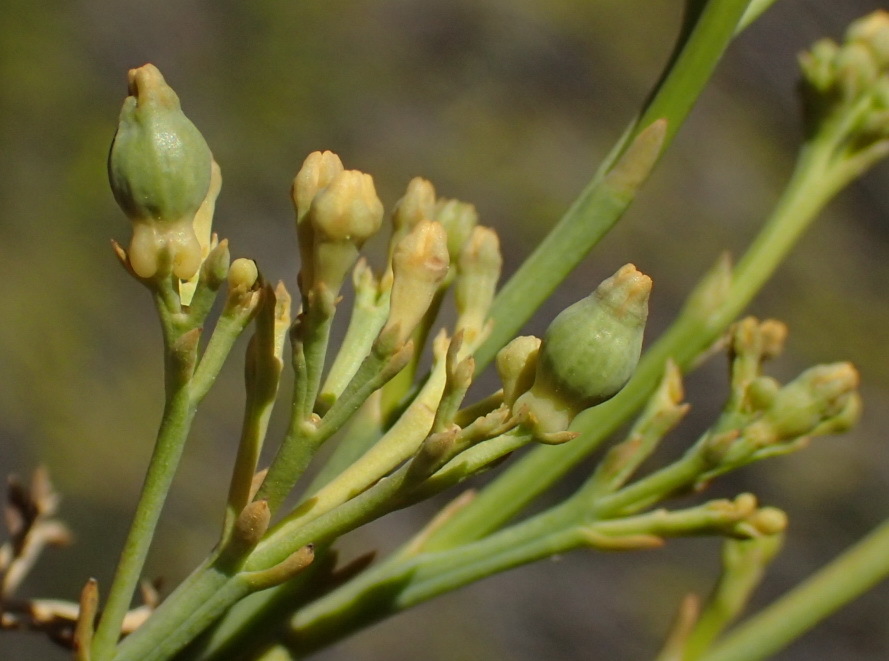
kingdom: Plantae
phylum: Tracheophyta
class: Magnoliopsida
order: Santalales
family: Thesiaceae
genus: Thesium
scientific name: Thesium strictum
